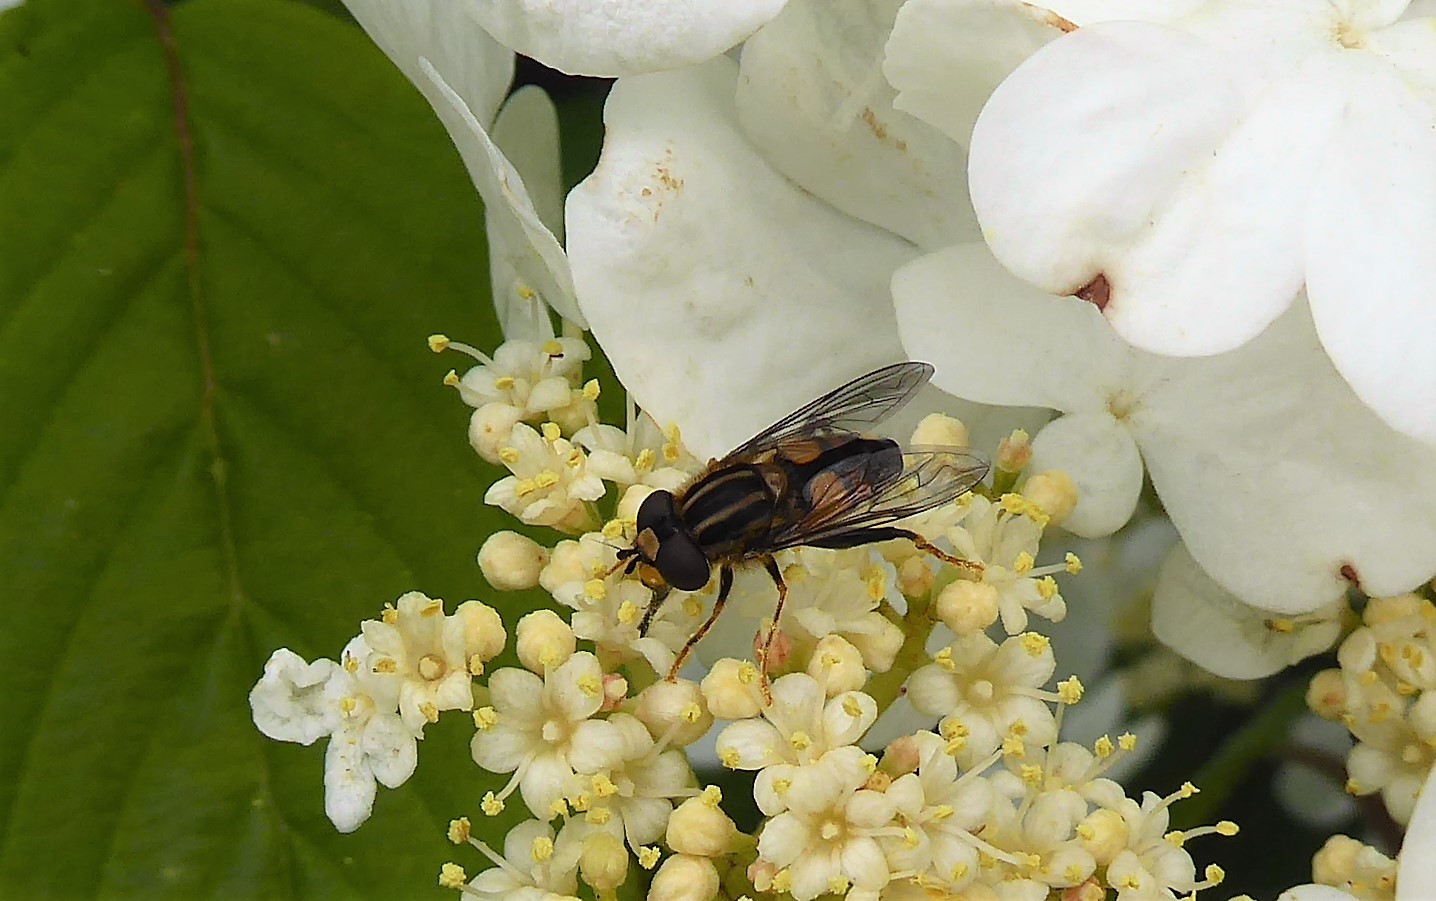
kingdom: Animalia
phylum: Arthropoda
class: Insecta
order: Diptera
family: Syrphidae
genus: Helophilus
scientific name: Helophilus antipodus
